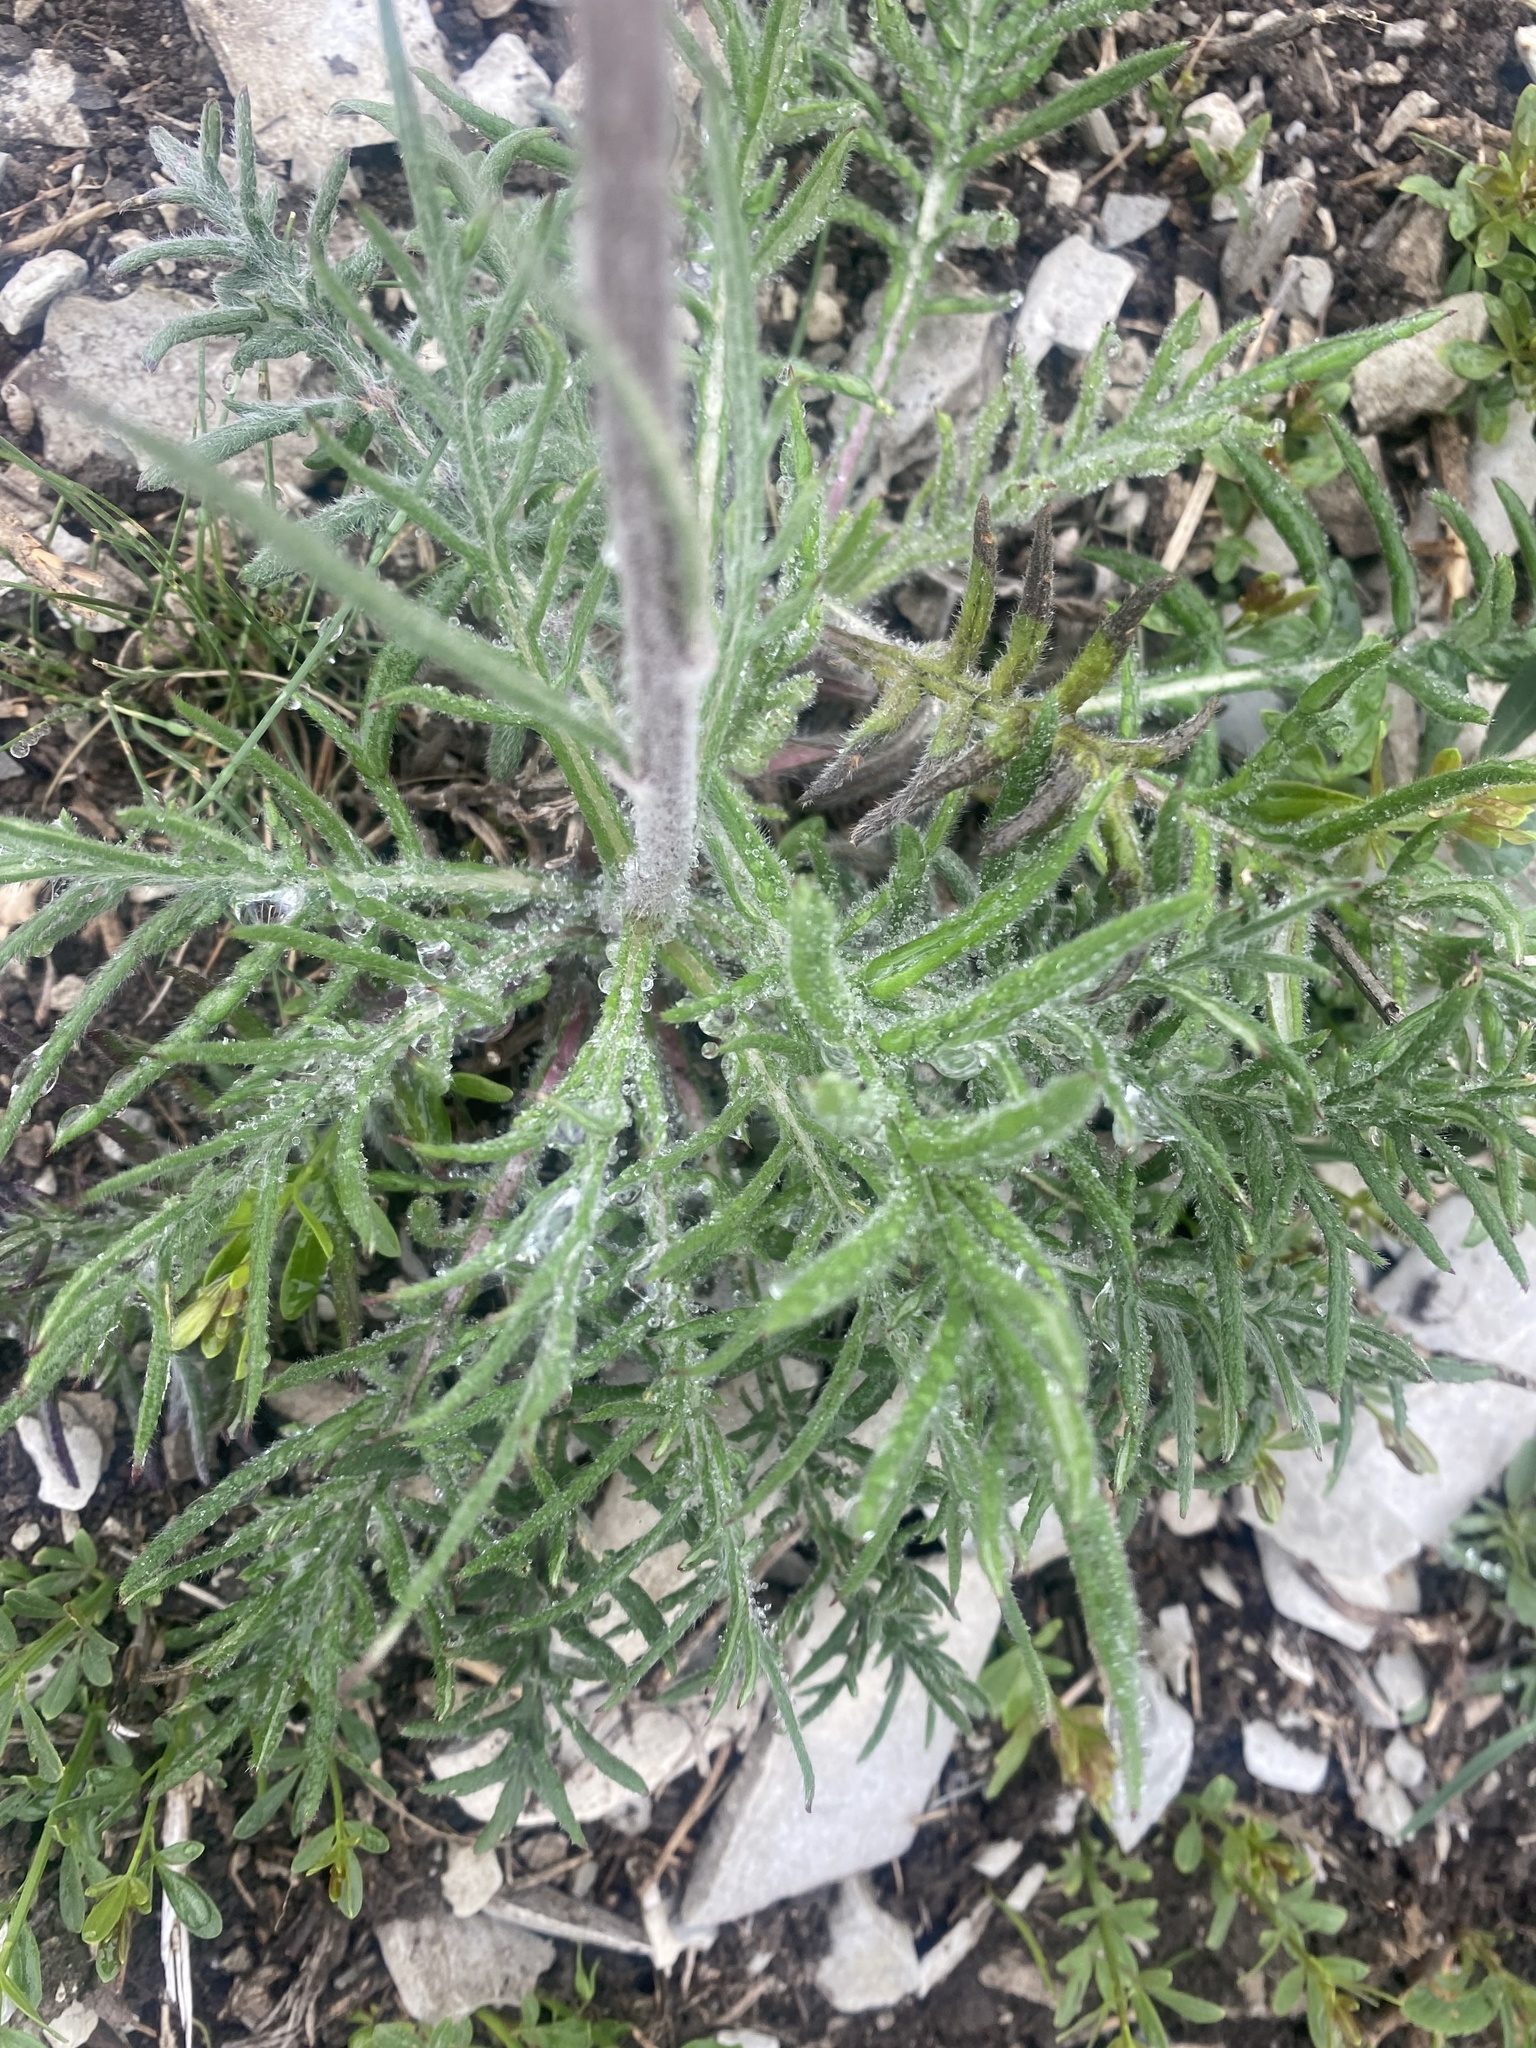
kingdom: Plantae
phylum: Tracheophyta
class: Magnoliopsida
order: Asterales
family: Asteraceae
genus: Jurinea
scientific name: Jurinea arachnoidea
